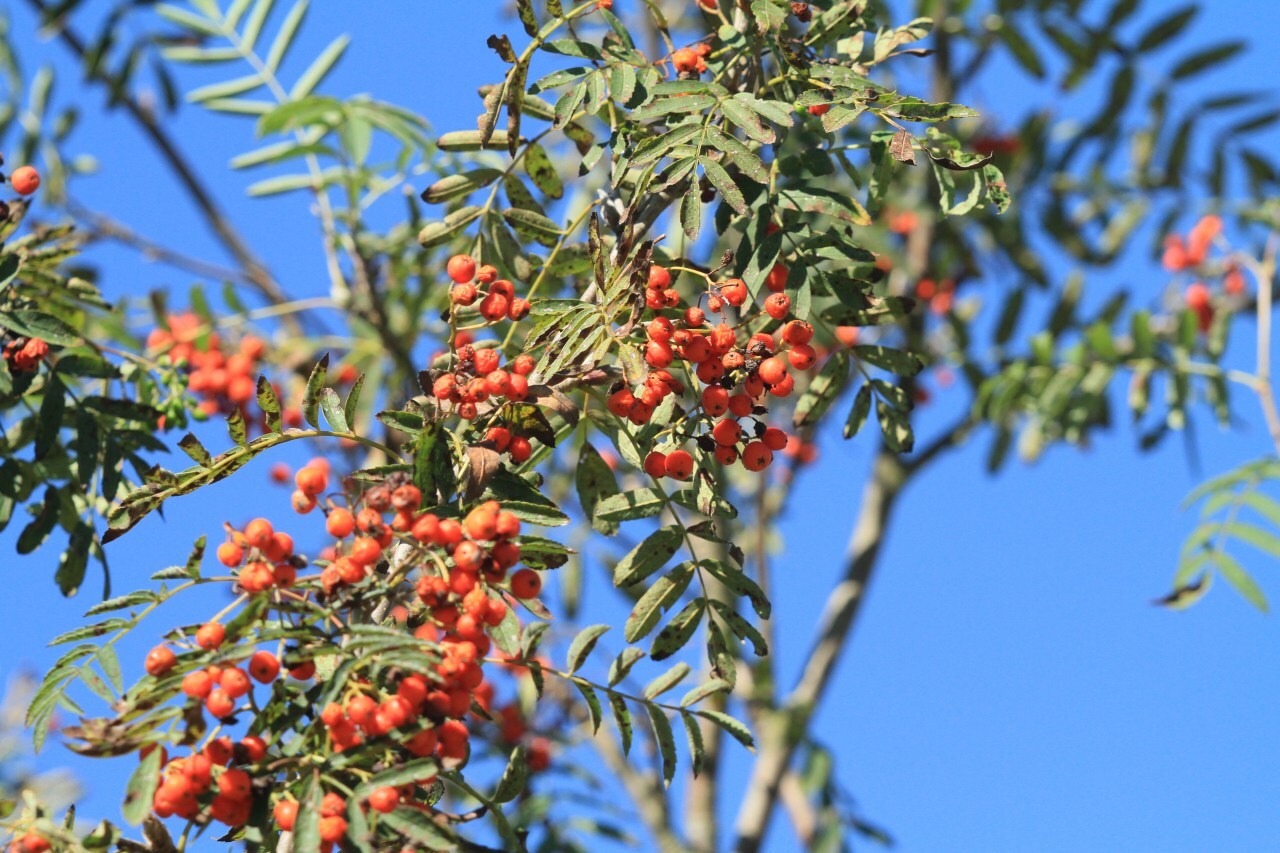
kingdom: Plantae
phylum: Tracheophyta
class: Magnoliopsida
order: Rosales
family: Rosaceae
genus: Sorbus
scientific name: Sorbus aucuparia
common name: Rowan
